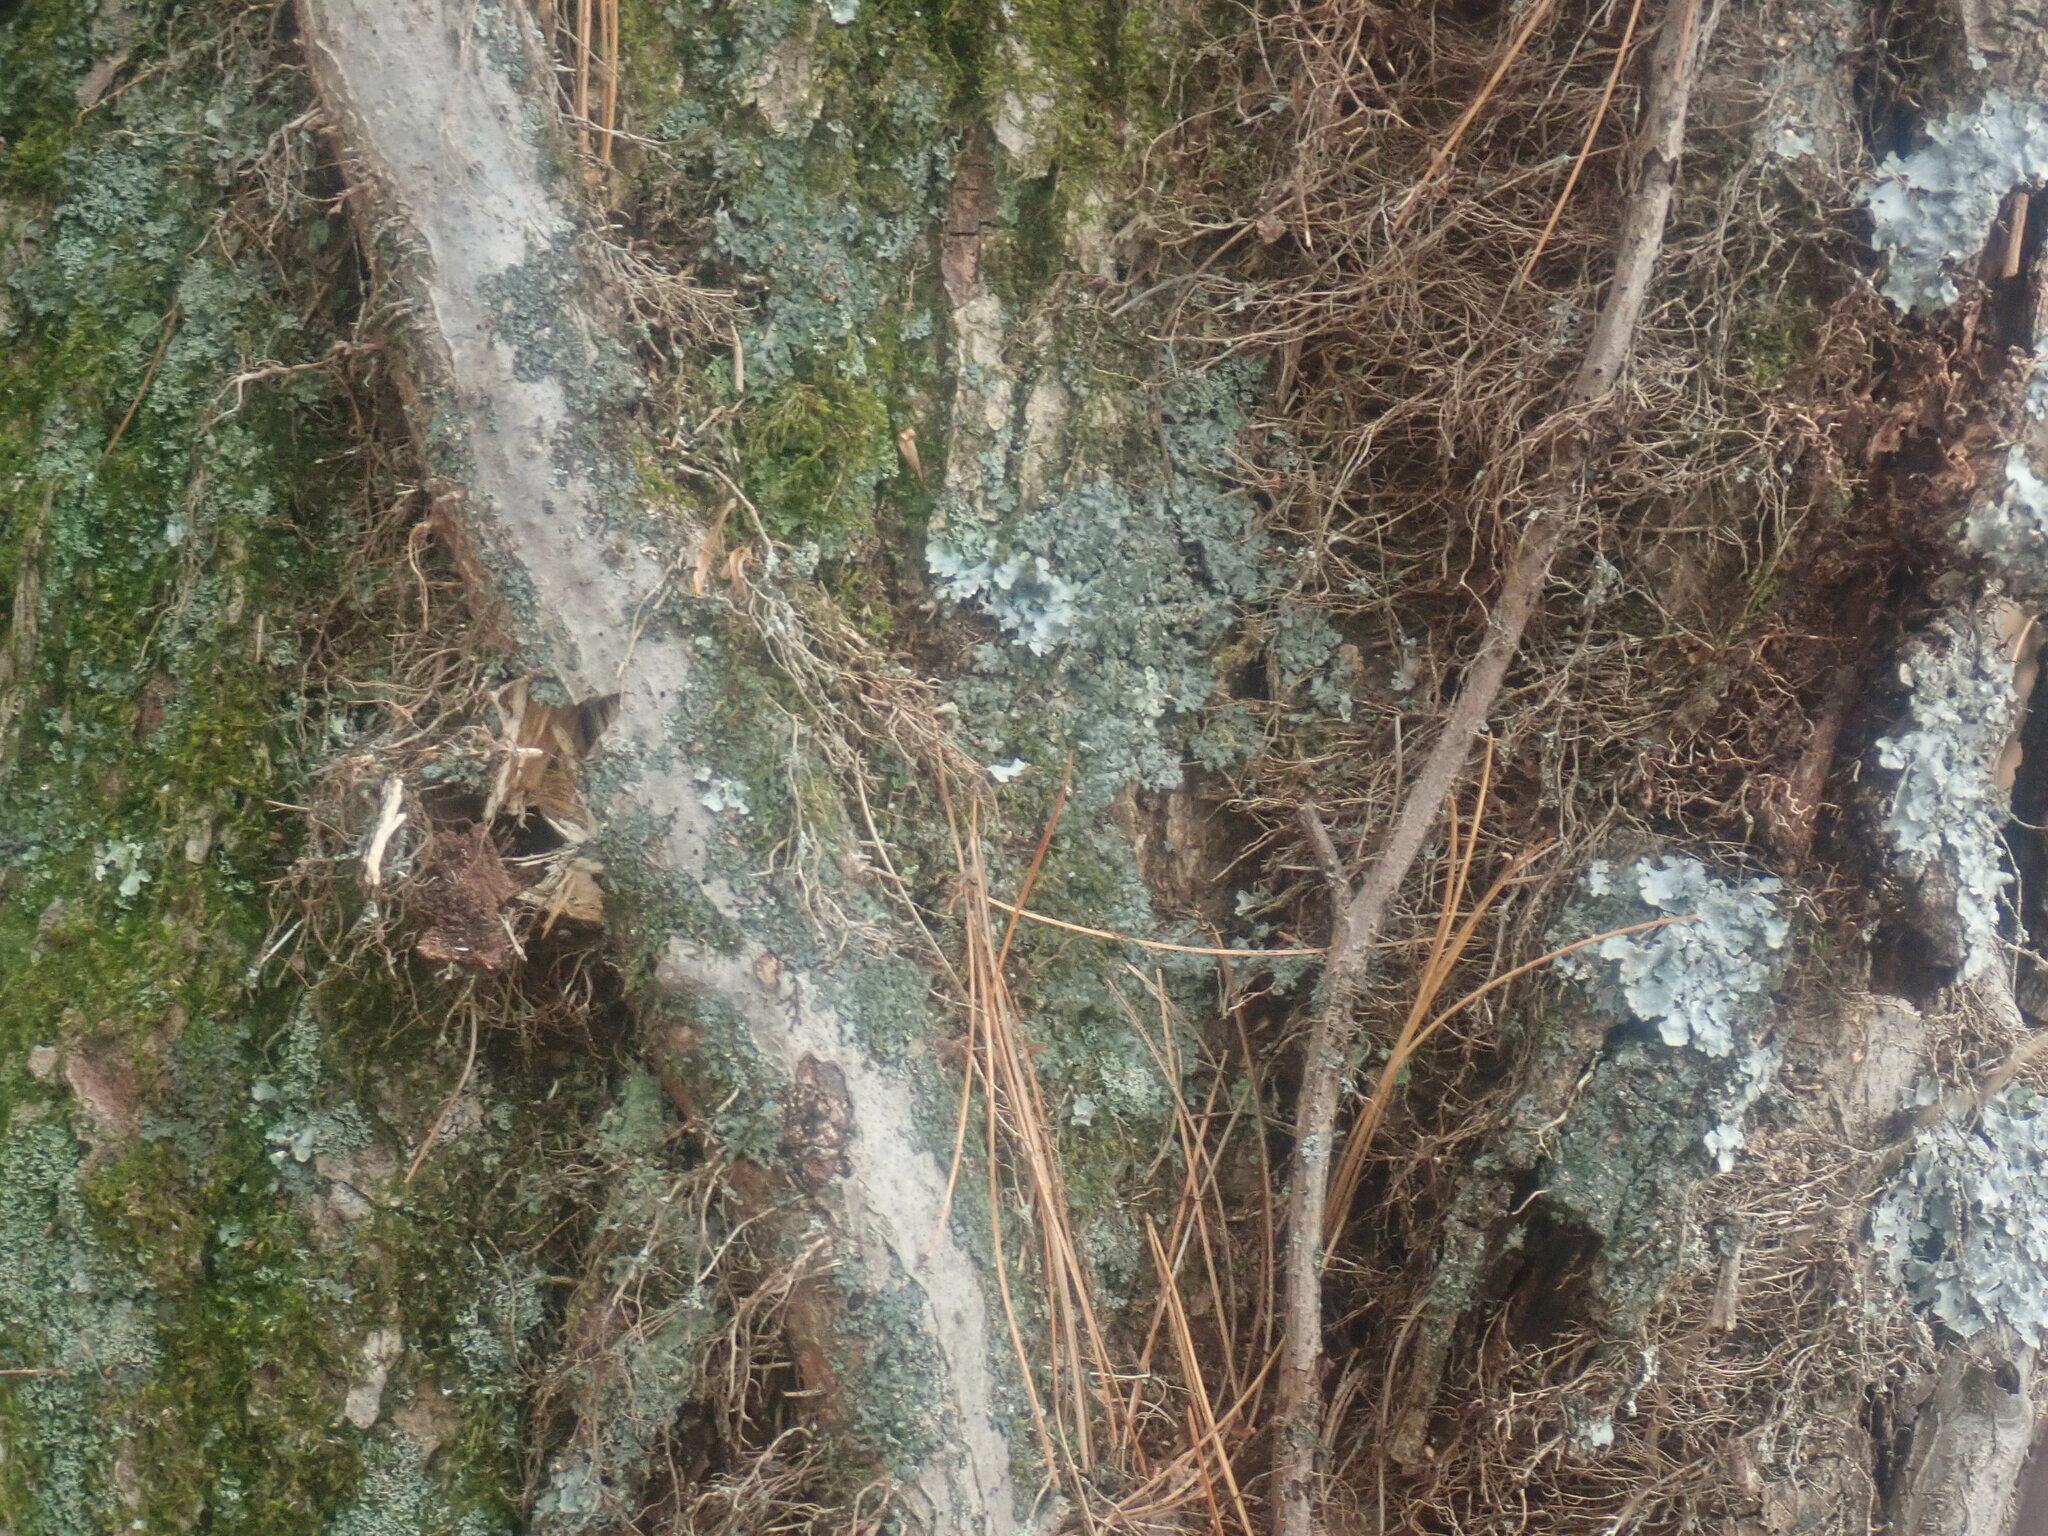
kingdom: Plantae
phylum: Tracheophyta
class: Magnoliopsida
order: Sapindales
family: Anacardiaceae
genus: Toxicodendron
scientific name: Toxicodendron radicans
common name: Poison ivy
